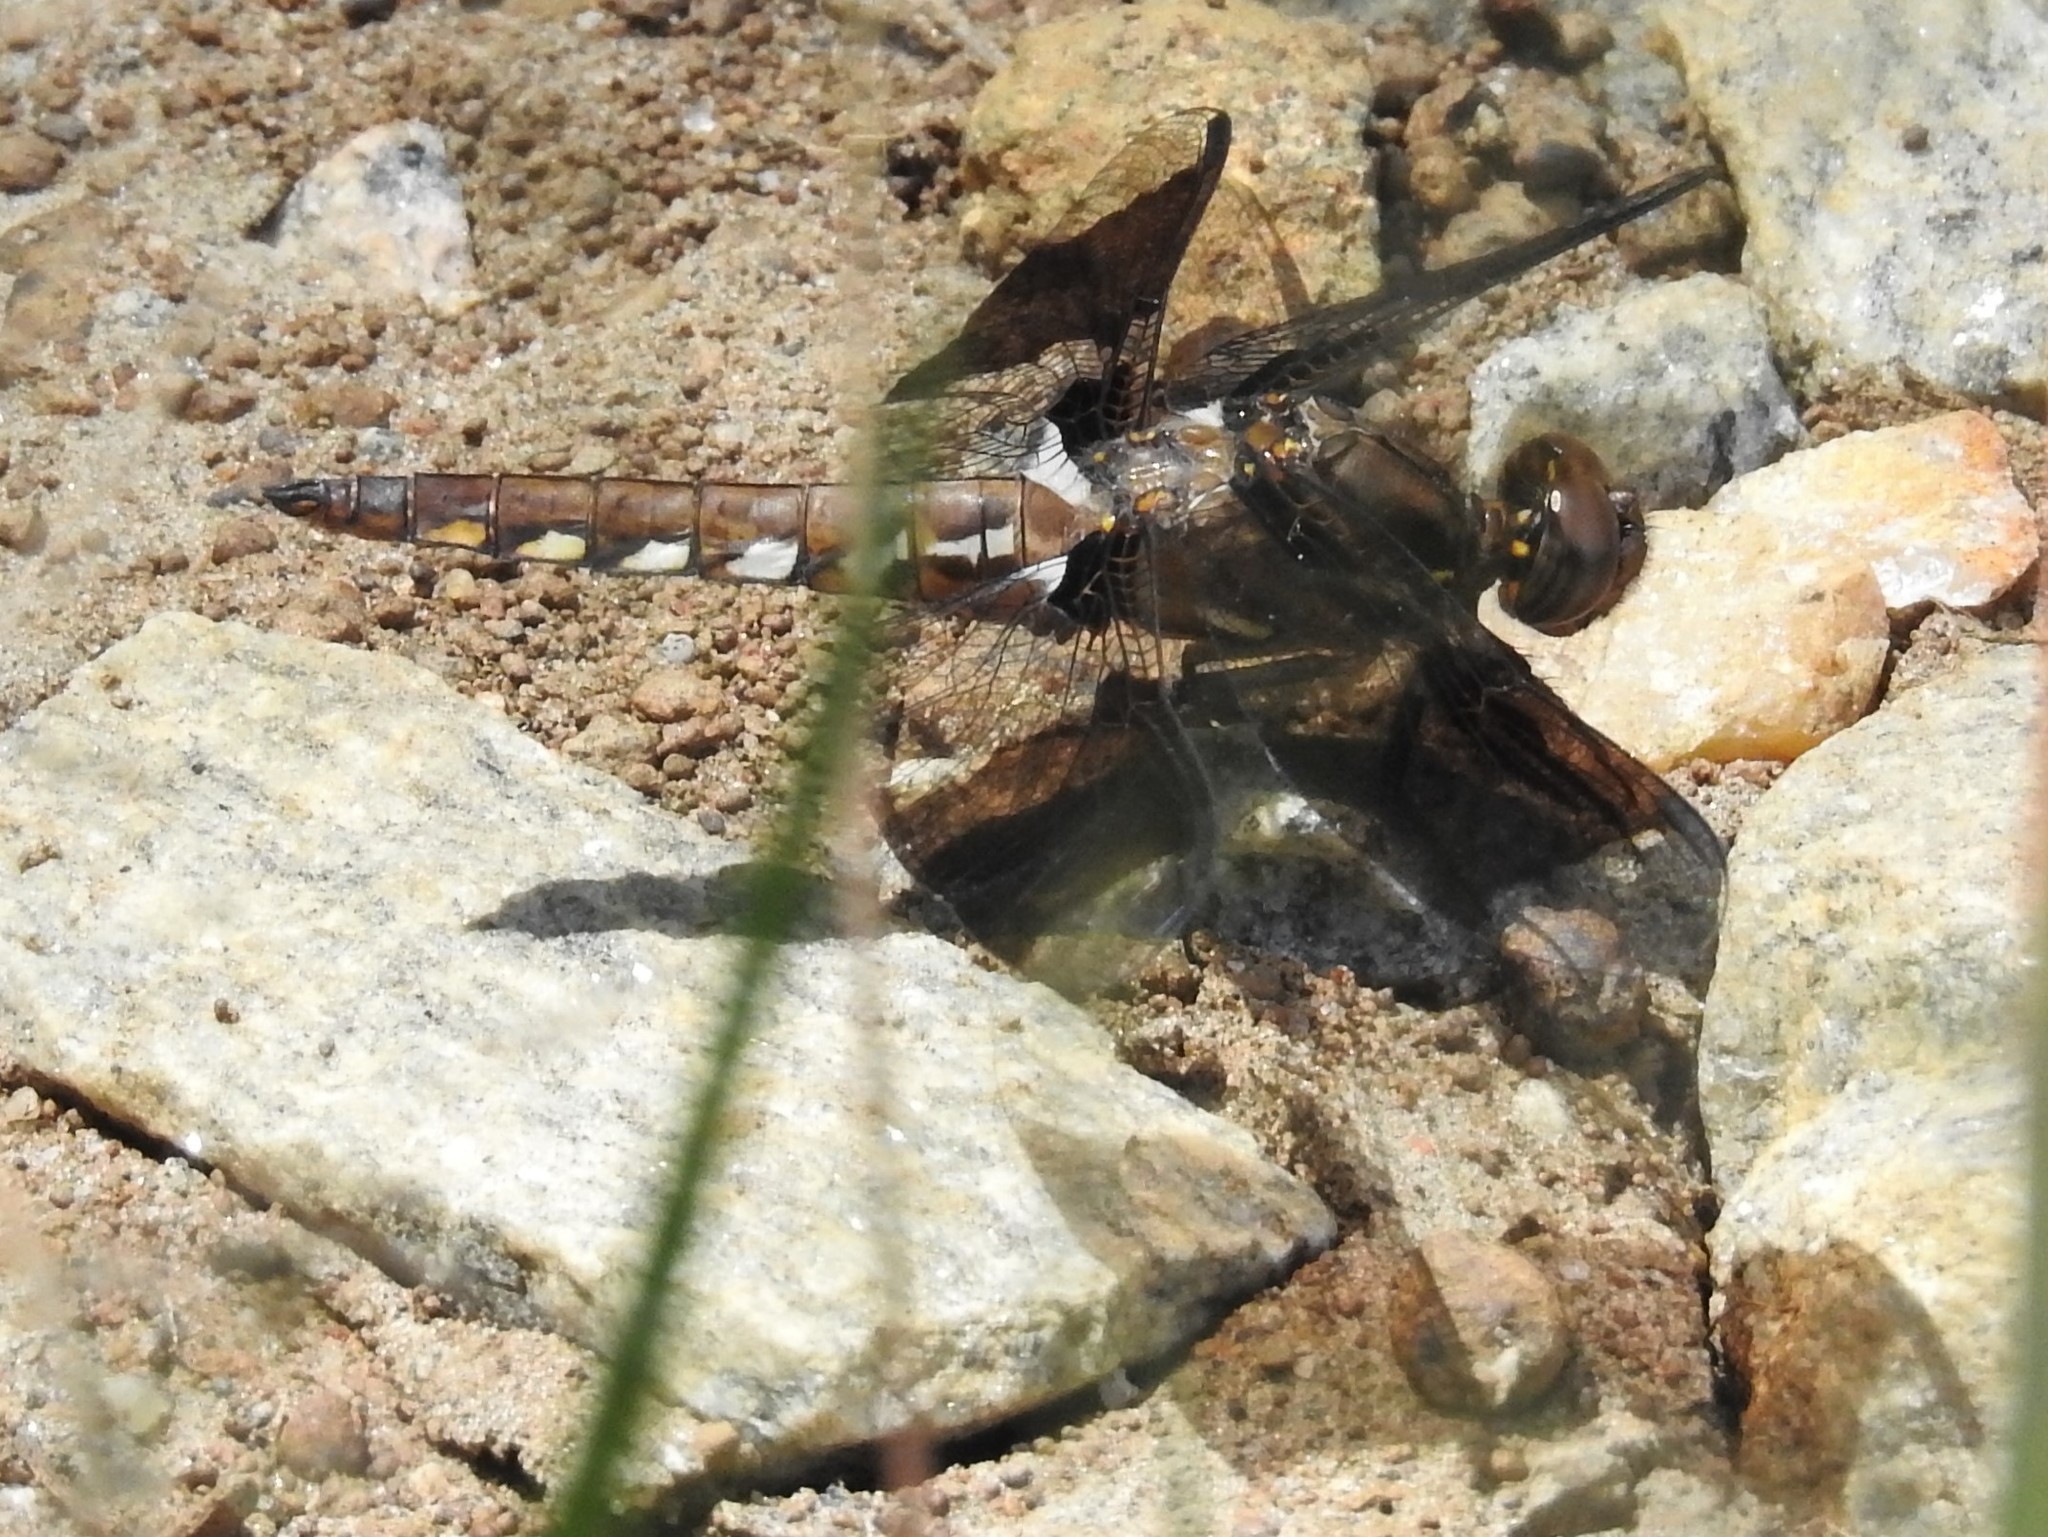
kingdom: Animalia
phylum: Arthropoda
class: Insecta
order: Odonata
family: Libellulidae
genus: Plathemis
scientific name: Plathemis lydia
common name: Common whitetail
